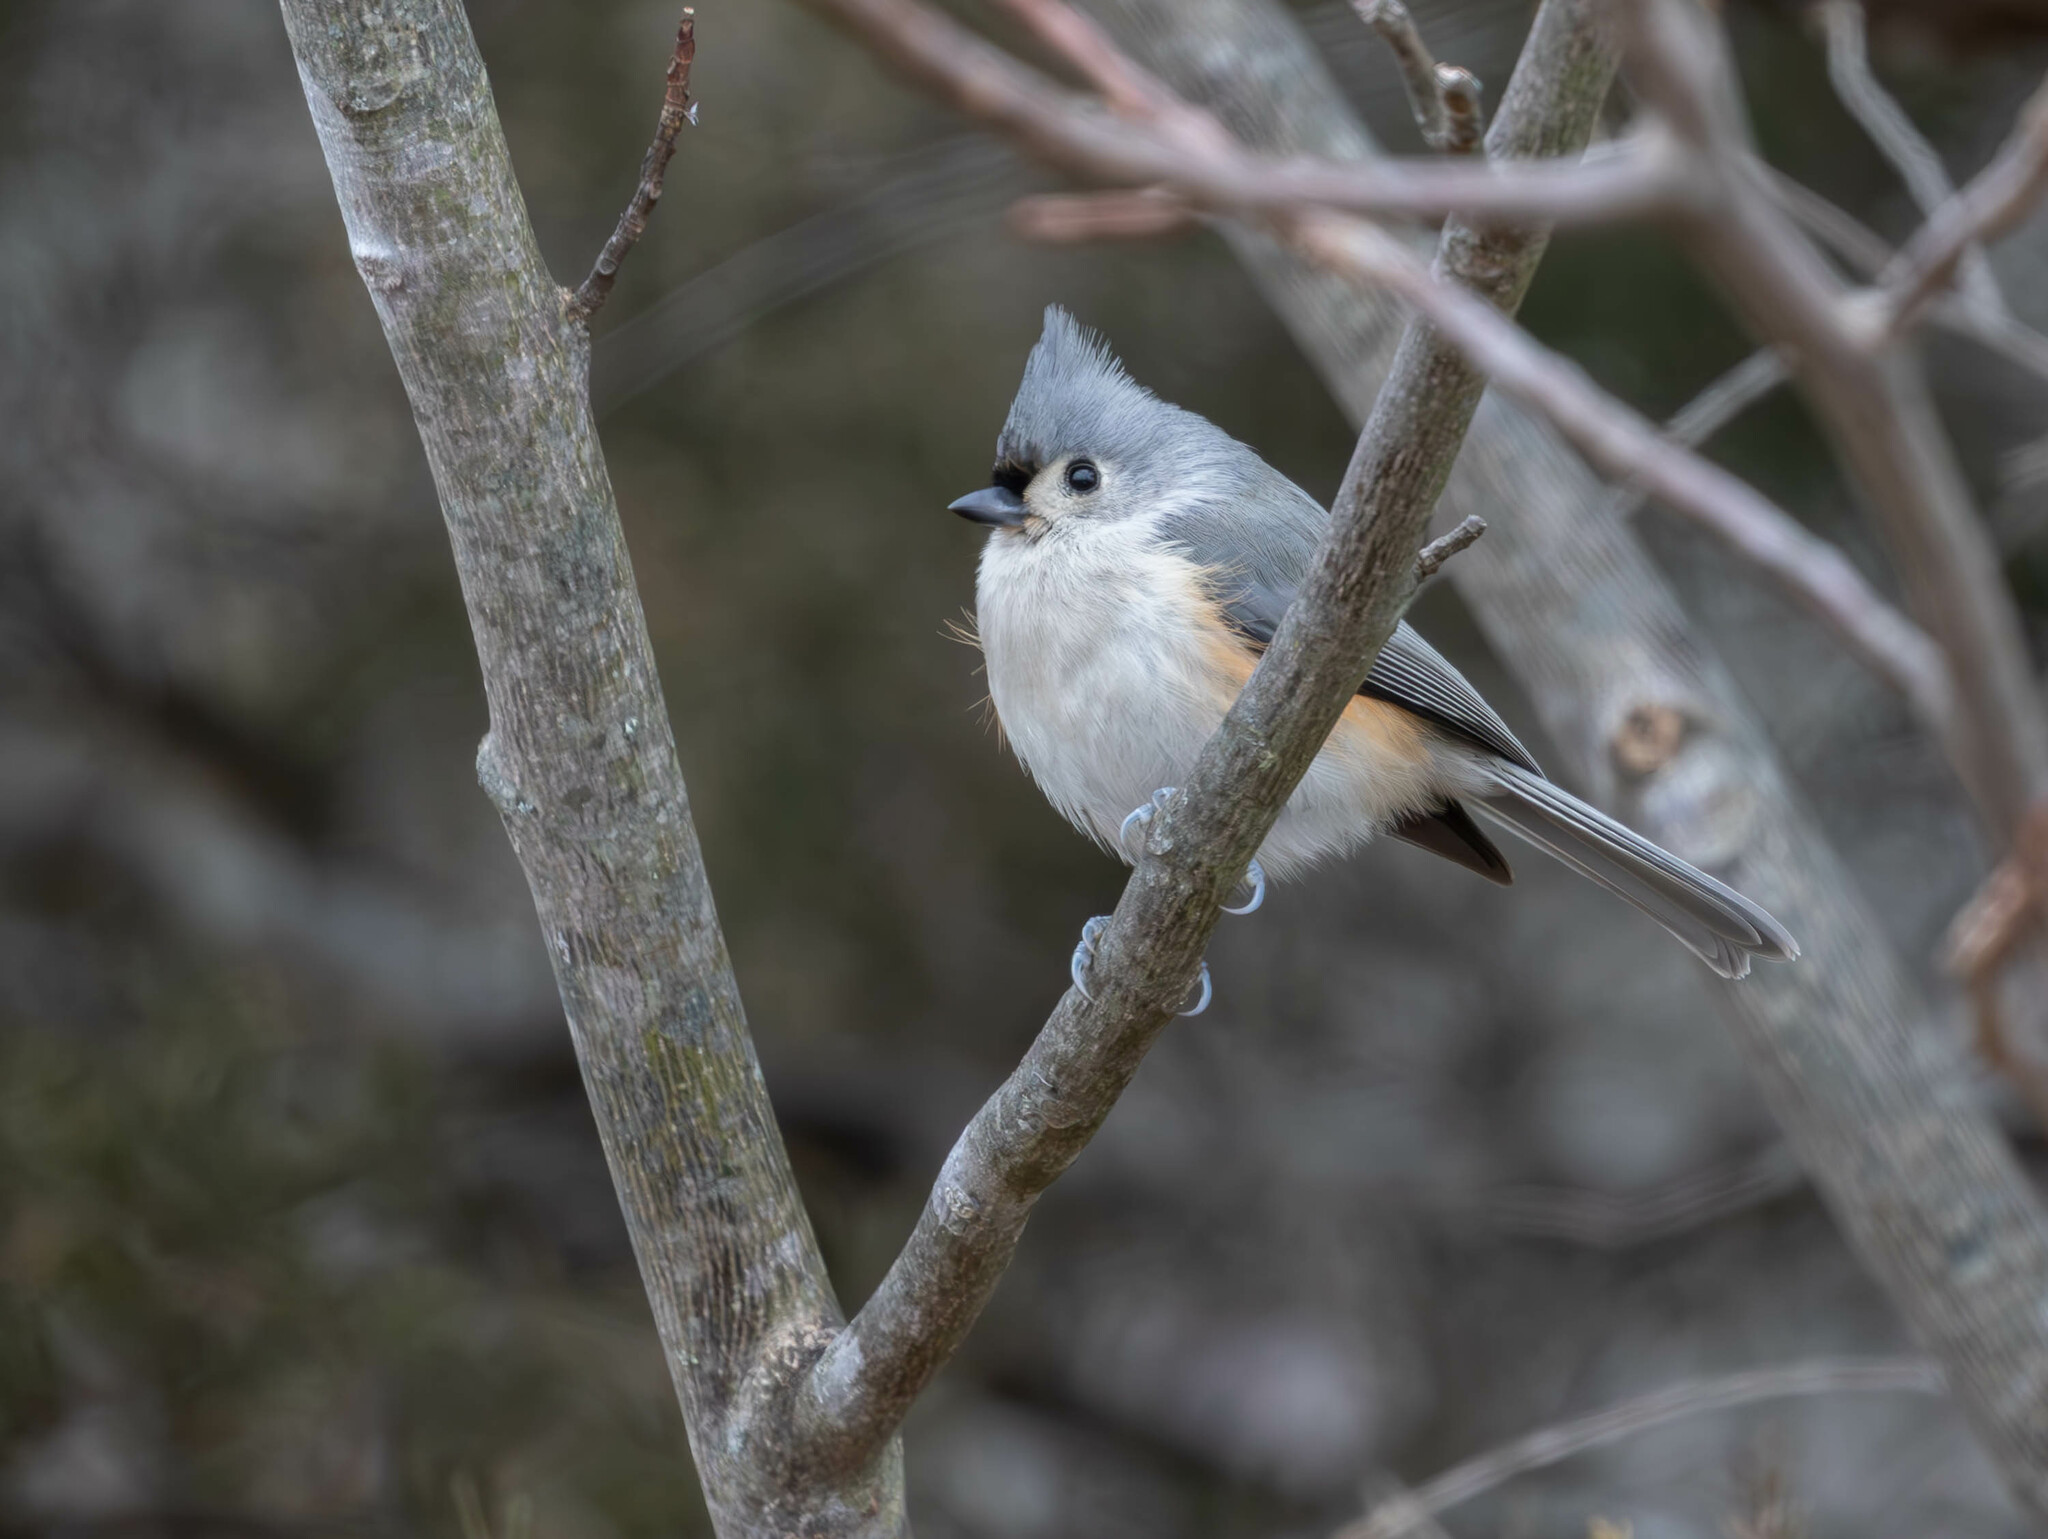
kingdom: Animalia
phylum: Chordata
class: Aves
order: Passeriformes
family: Paridae
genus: Baeolophus
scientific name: Baeolophus bicolor
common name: Tufted titmouse
